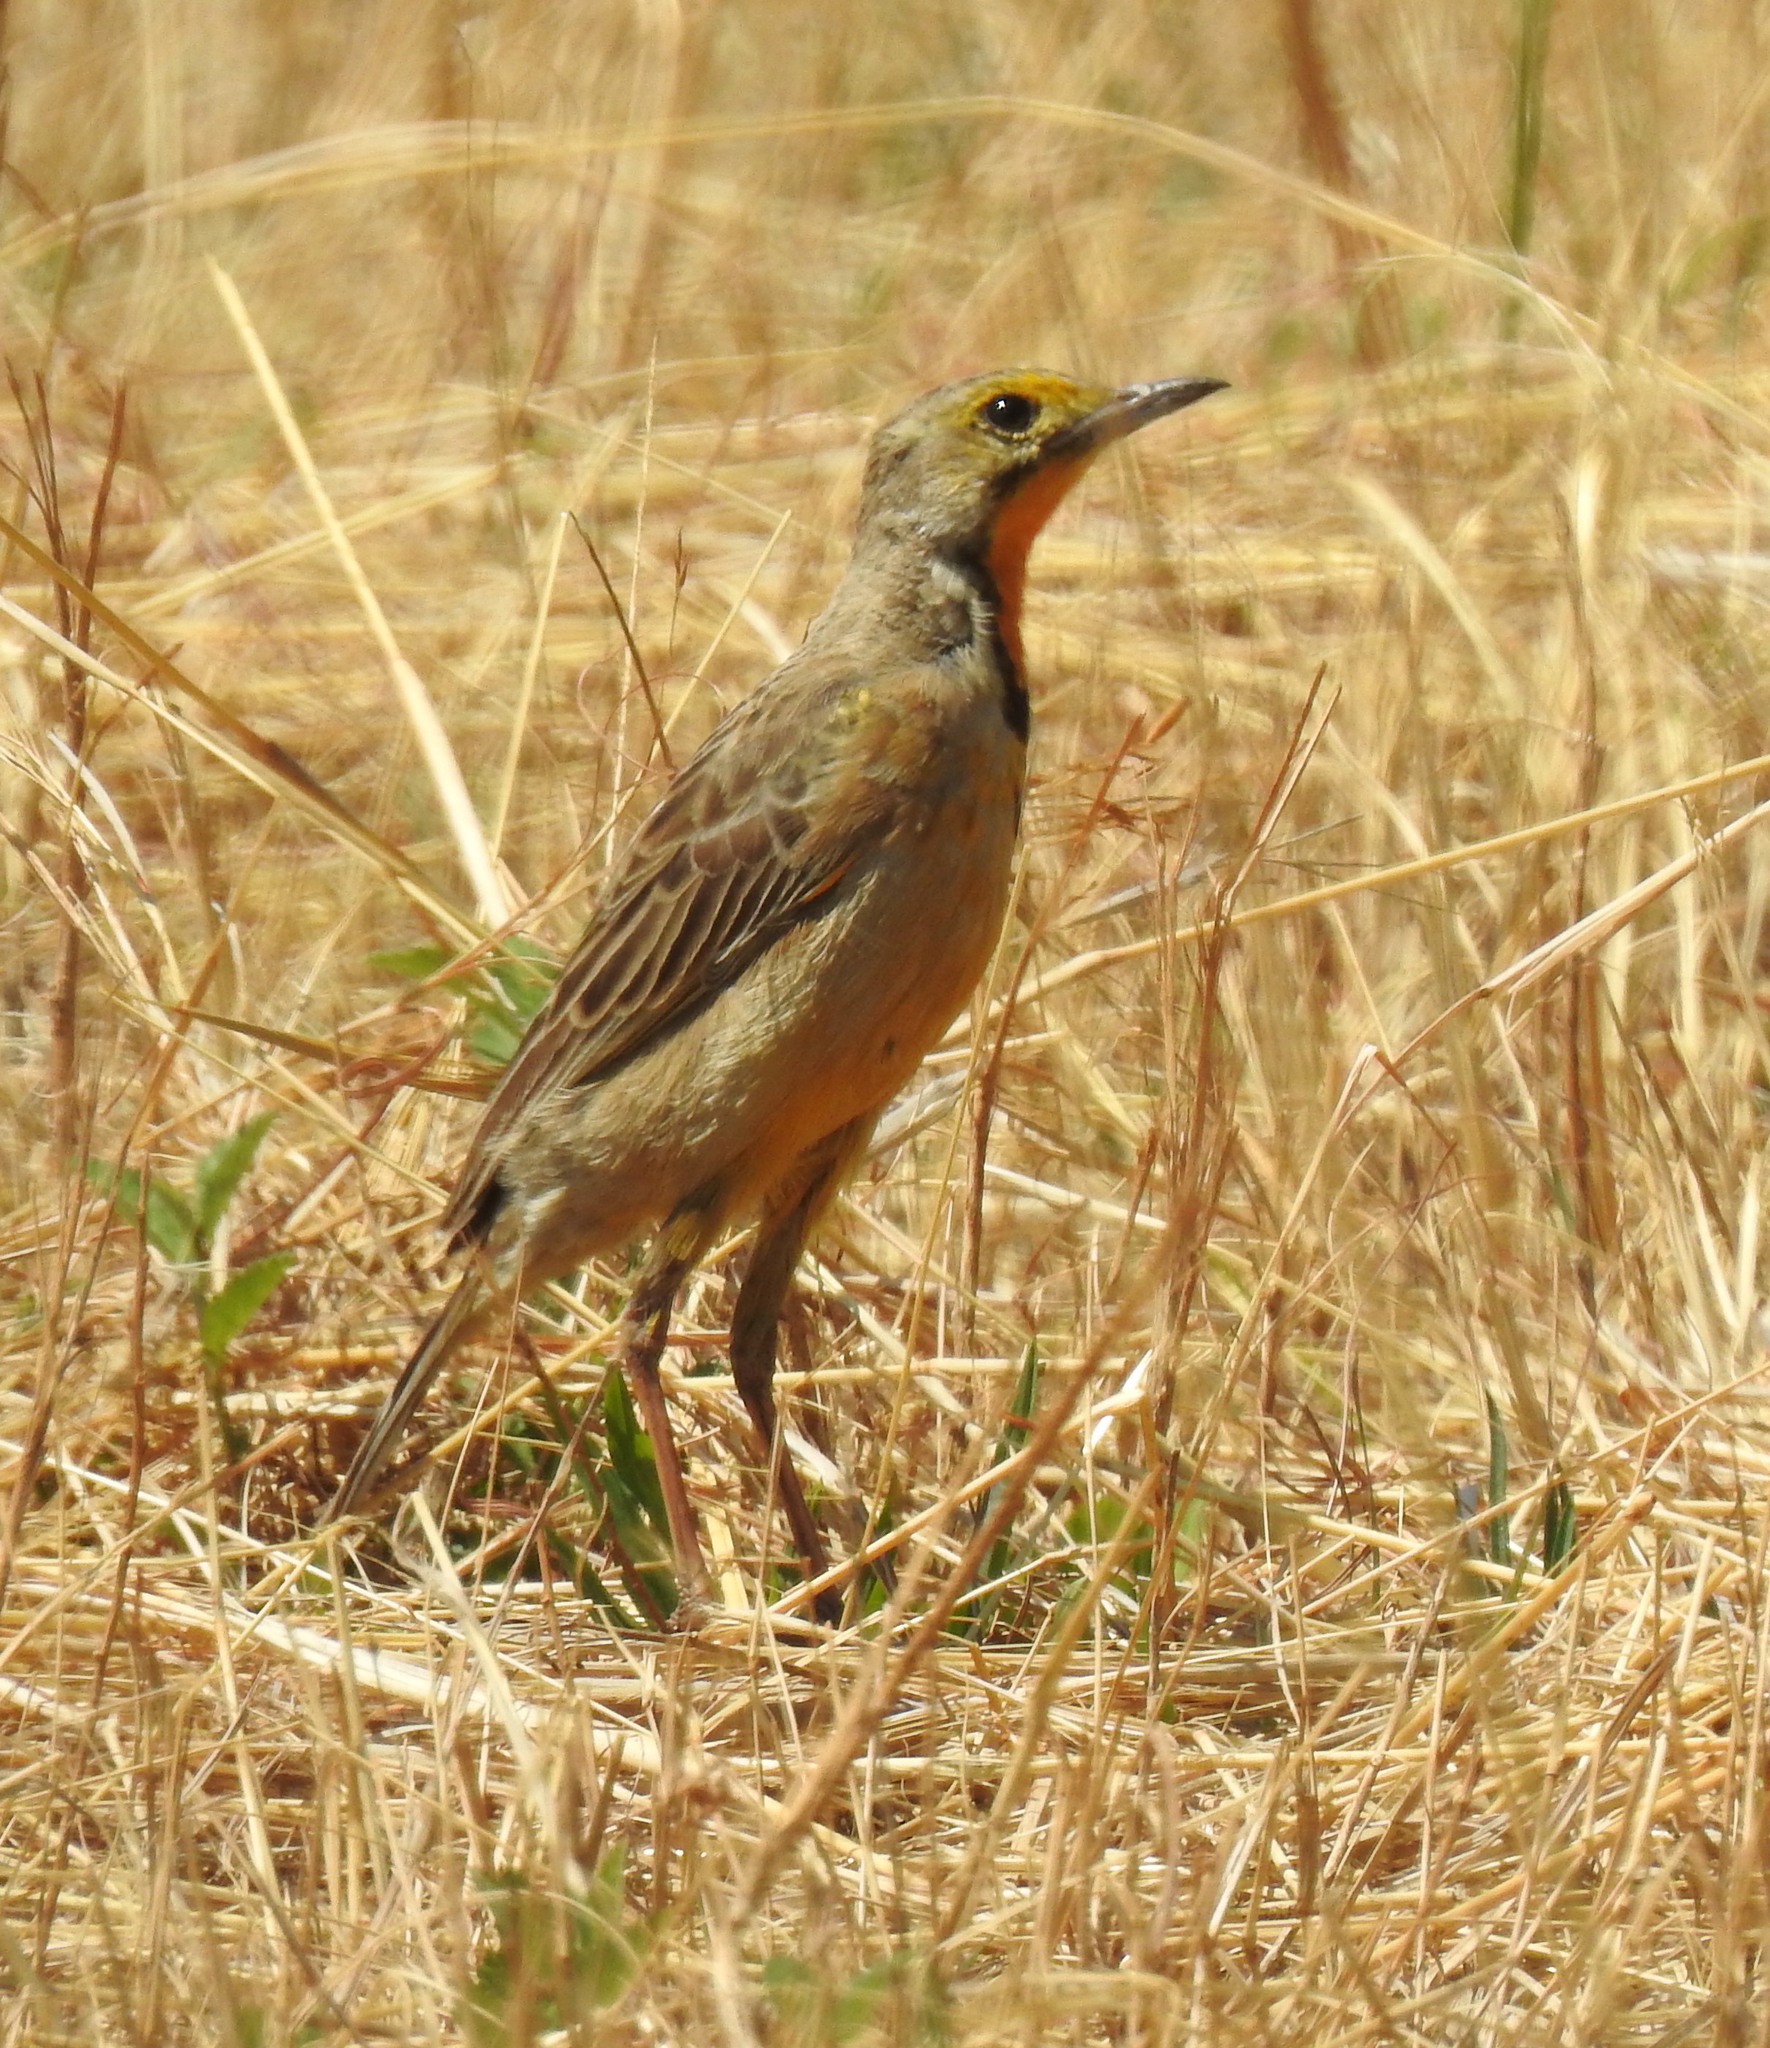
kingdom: Animalia
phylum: Chordata
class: Aves
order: Passeriformes
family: Motacillidae
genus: Macronyx
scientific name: Macronyx capensis
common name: Cape longclaw
